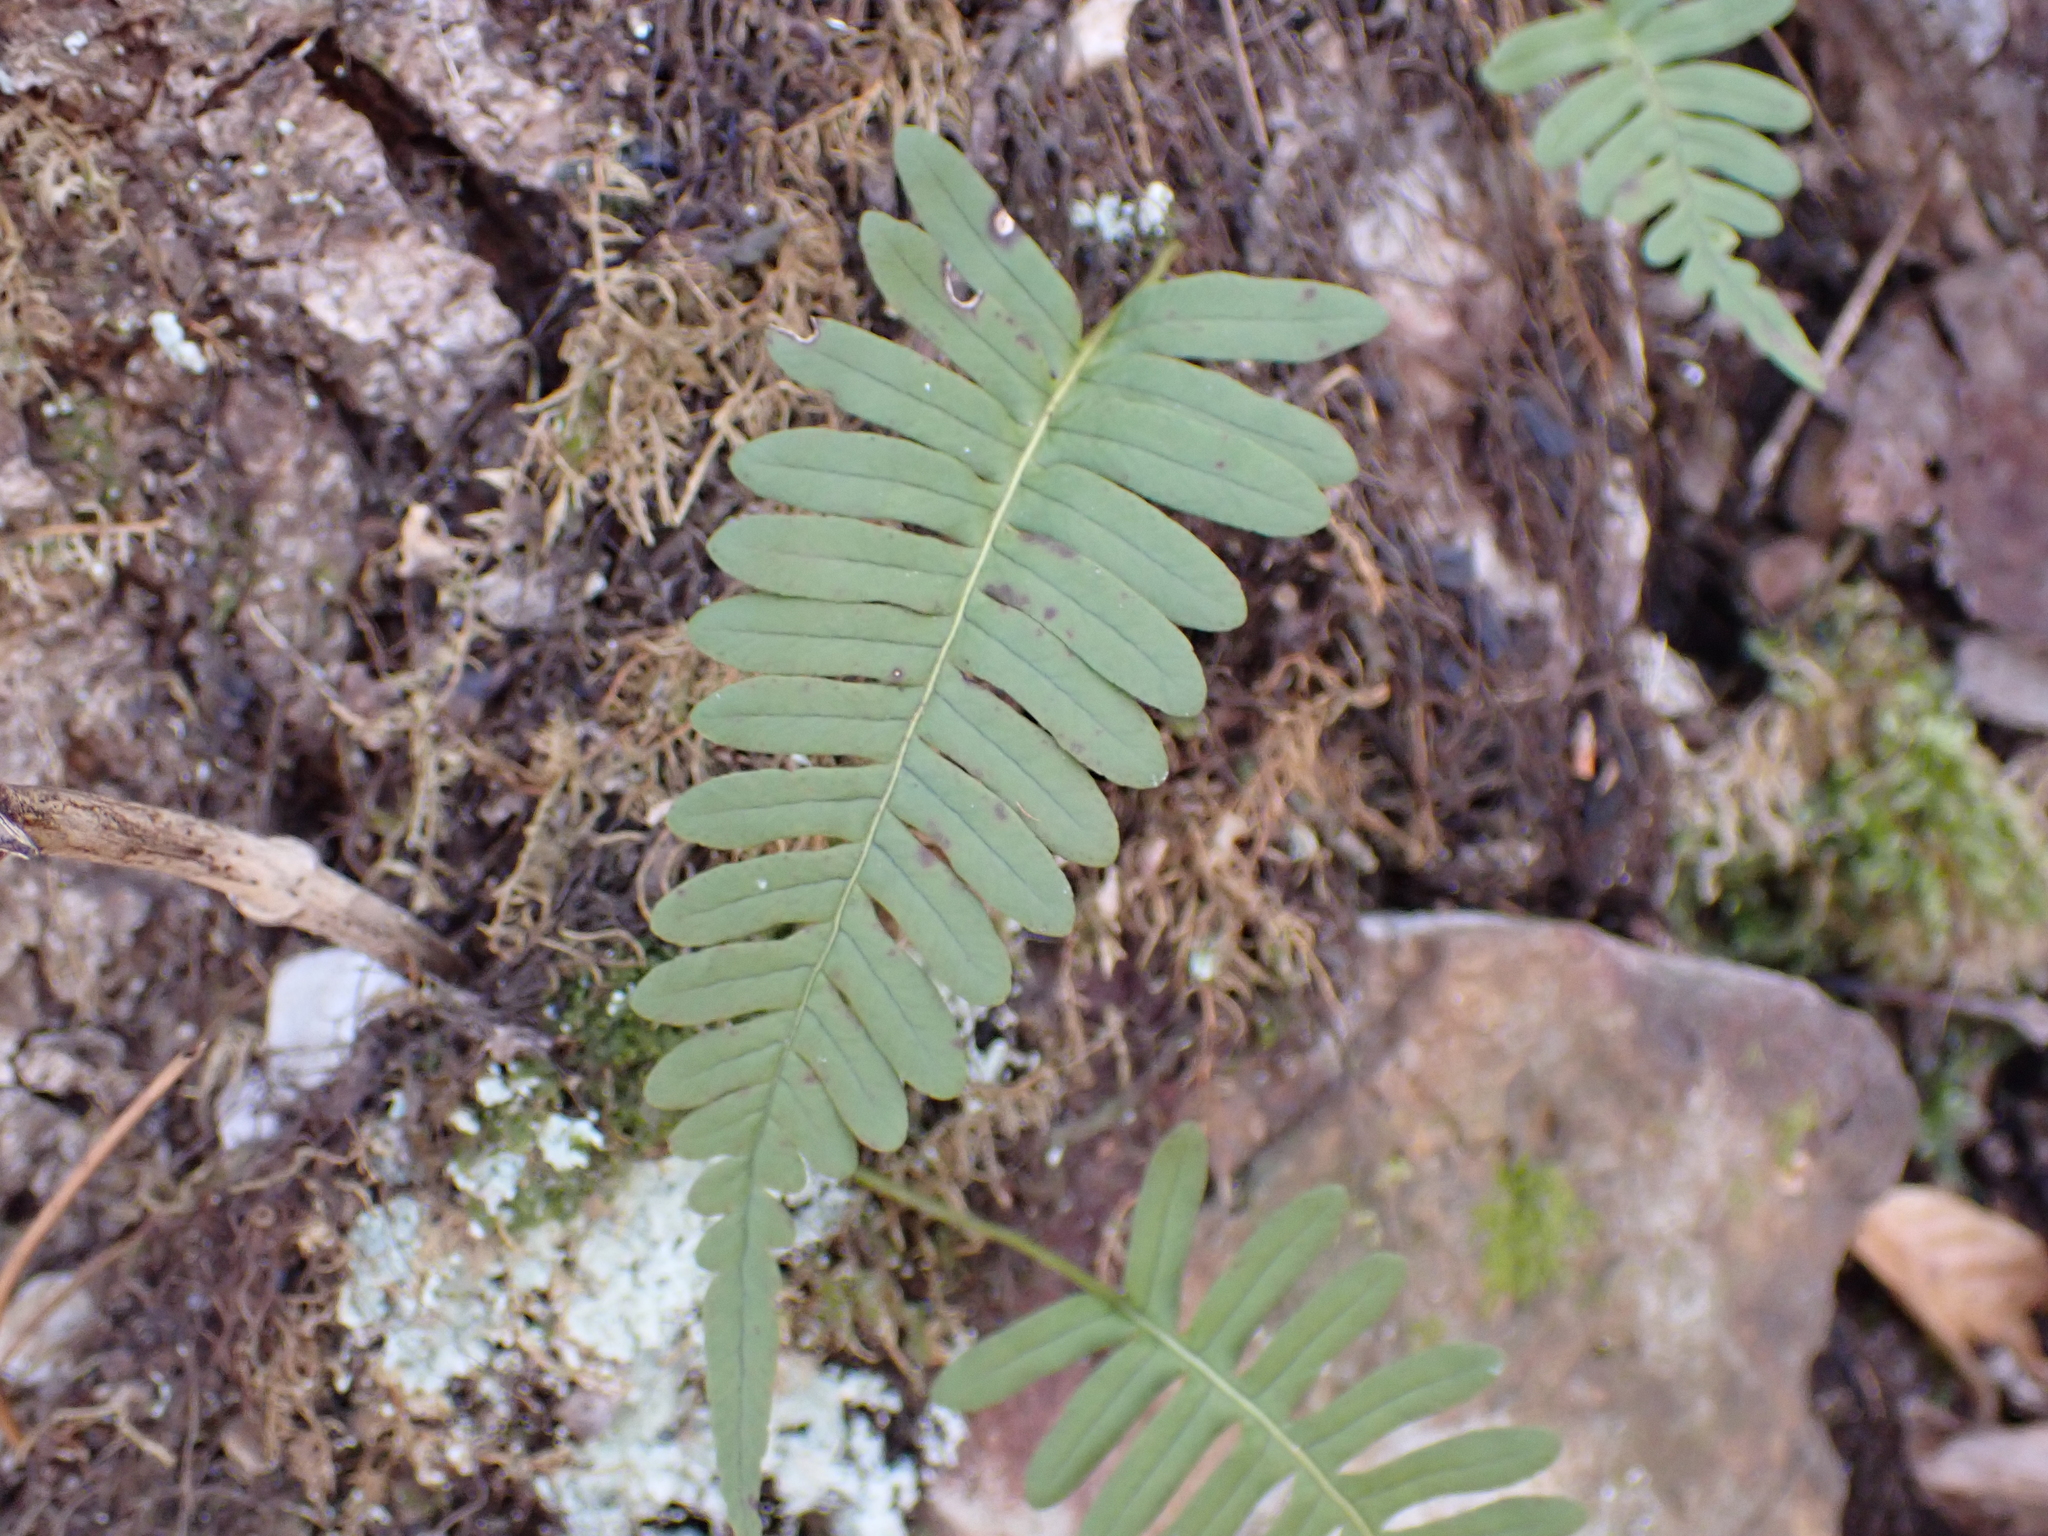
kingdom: Plantae
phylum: Tracheophyta
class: Polypodiopsida
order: Polypodiales
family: Polypodiaceae
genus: Polypodium
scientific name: Polypodium virginianum
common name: American wall fern
